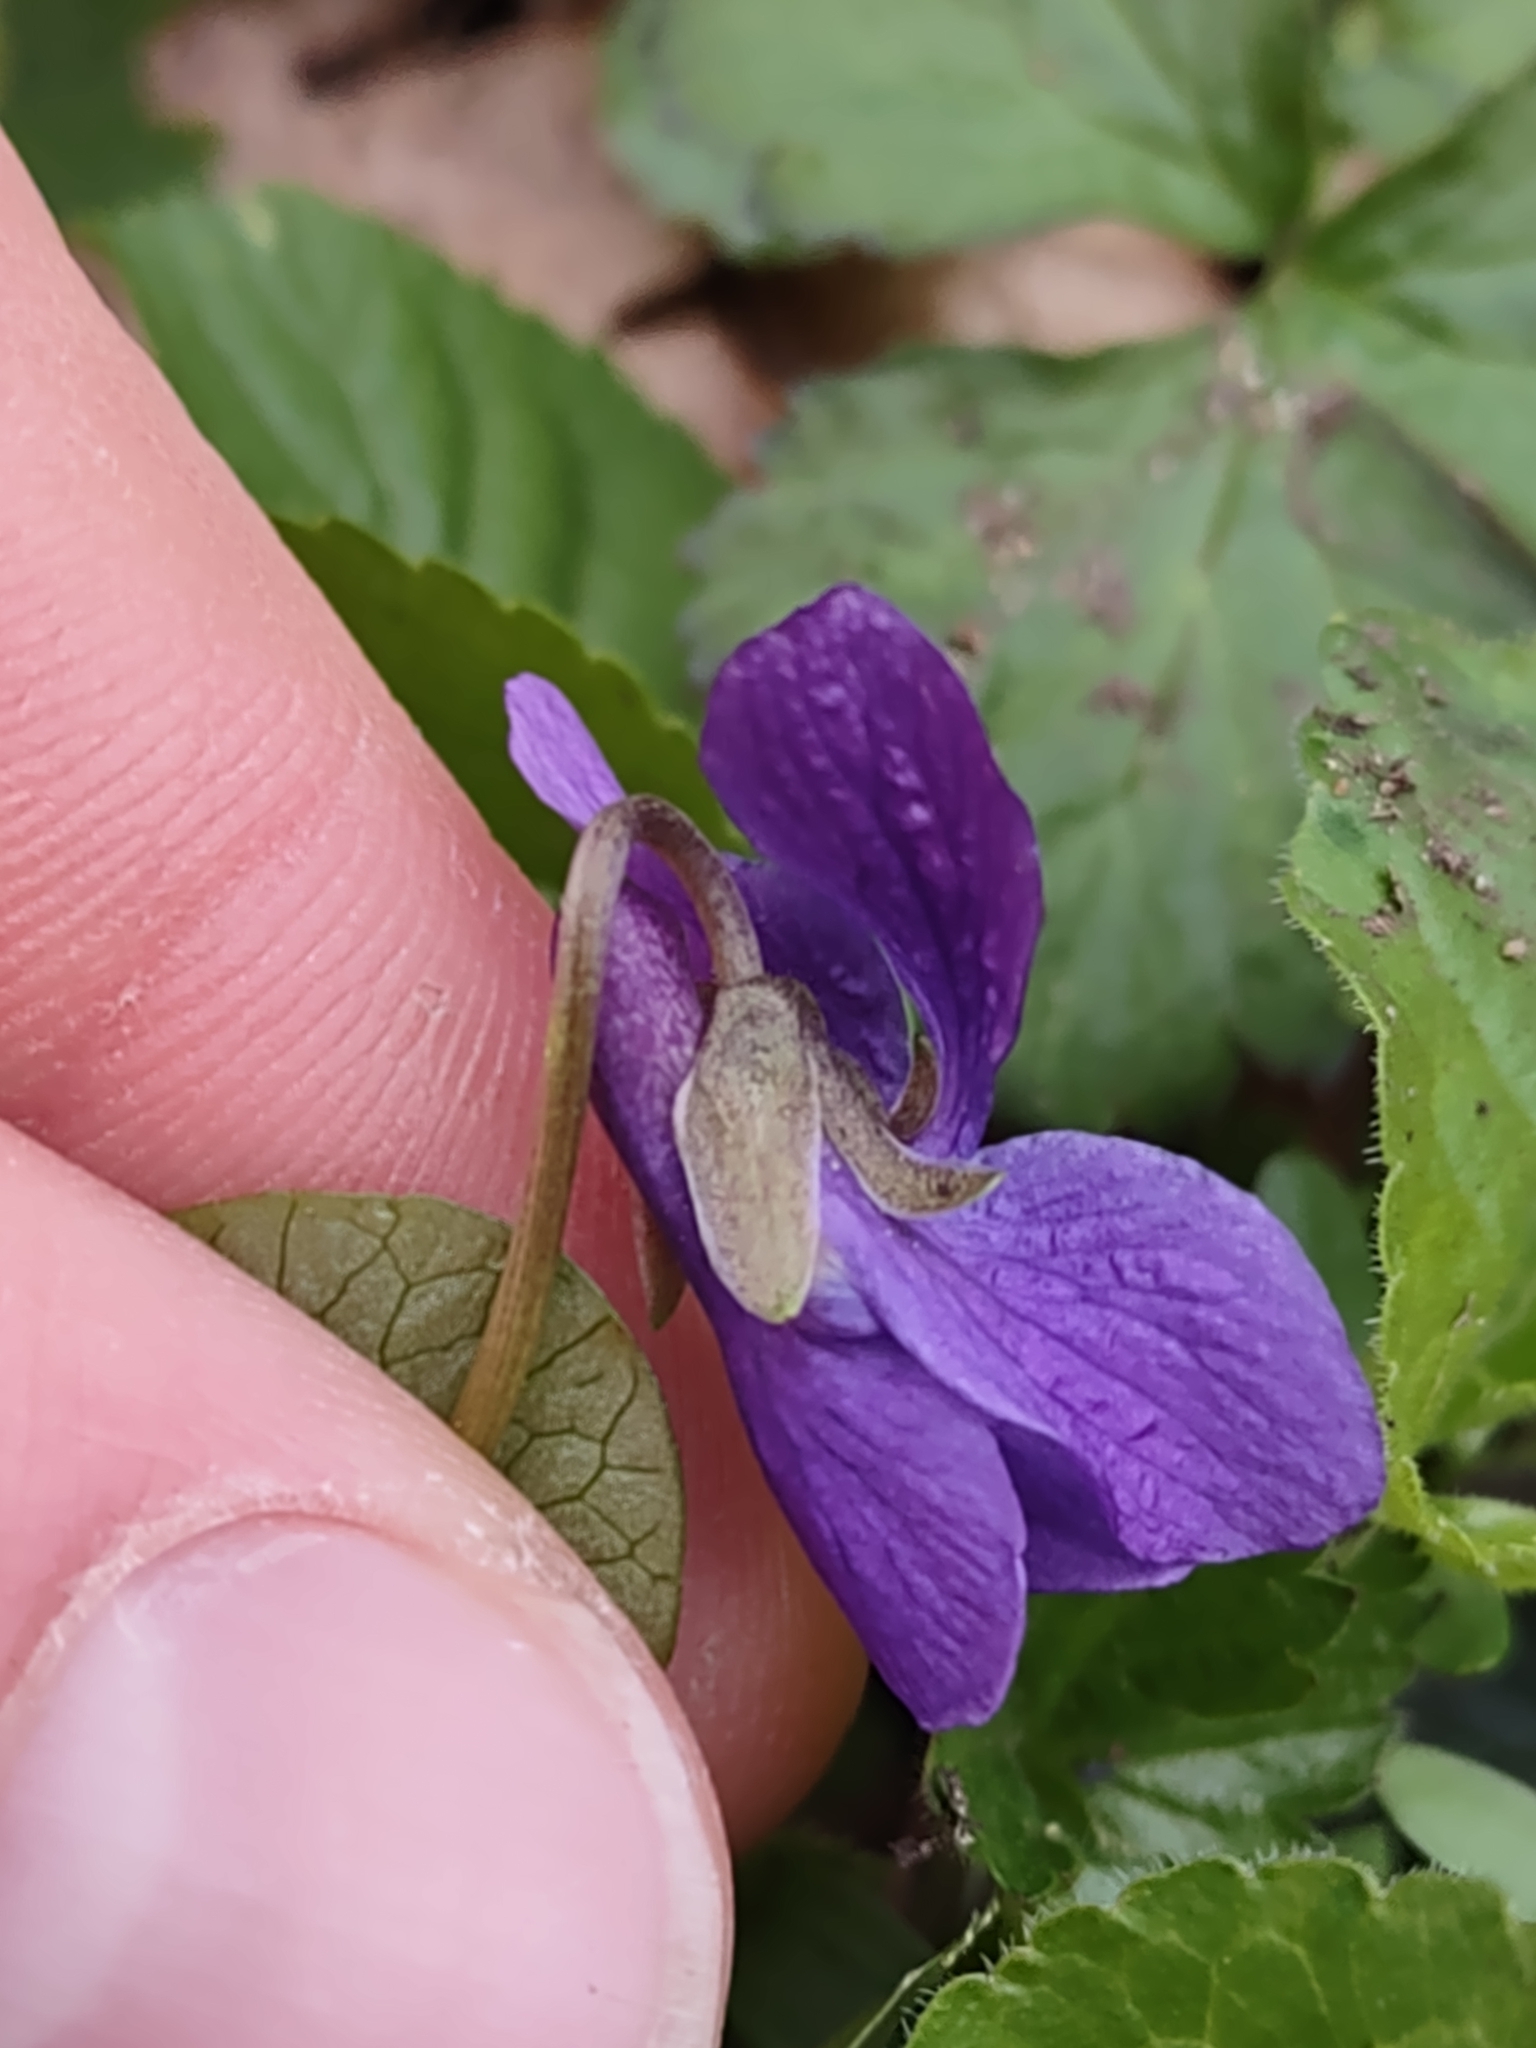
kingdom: Plantae
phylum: Tracheophyta
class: Magnoliopsida
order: Malpighiales
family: Violaceae
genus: Viola
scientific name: Viola odorata
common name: Sweet violet
